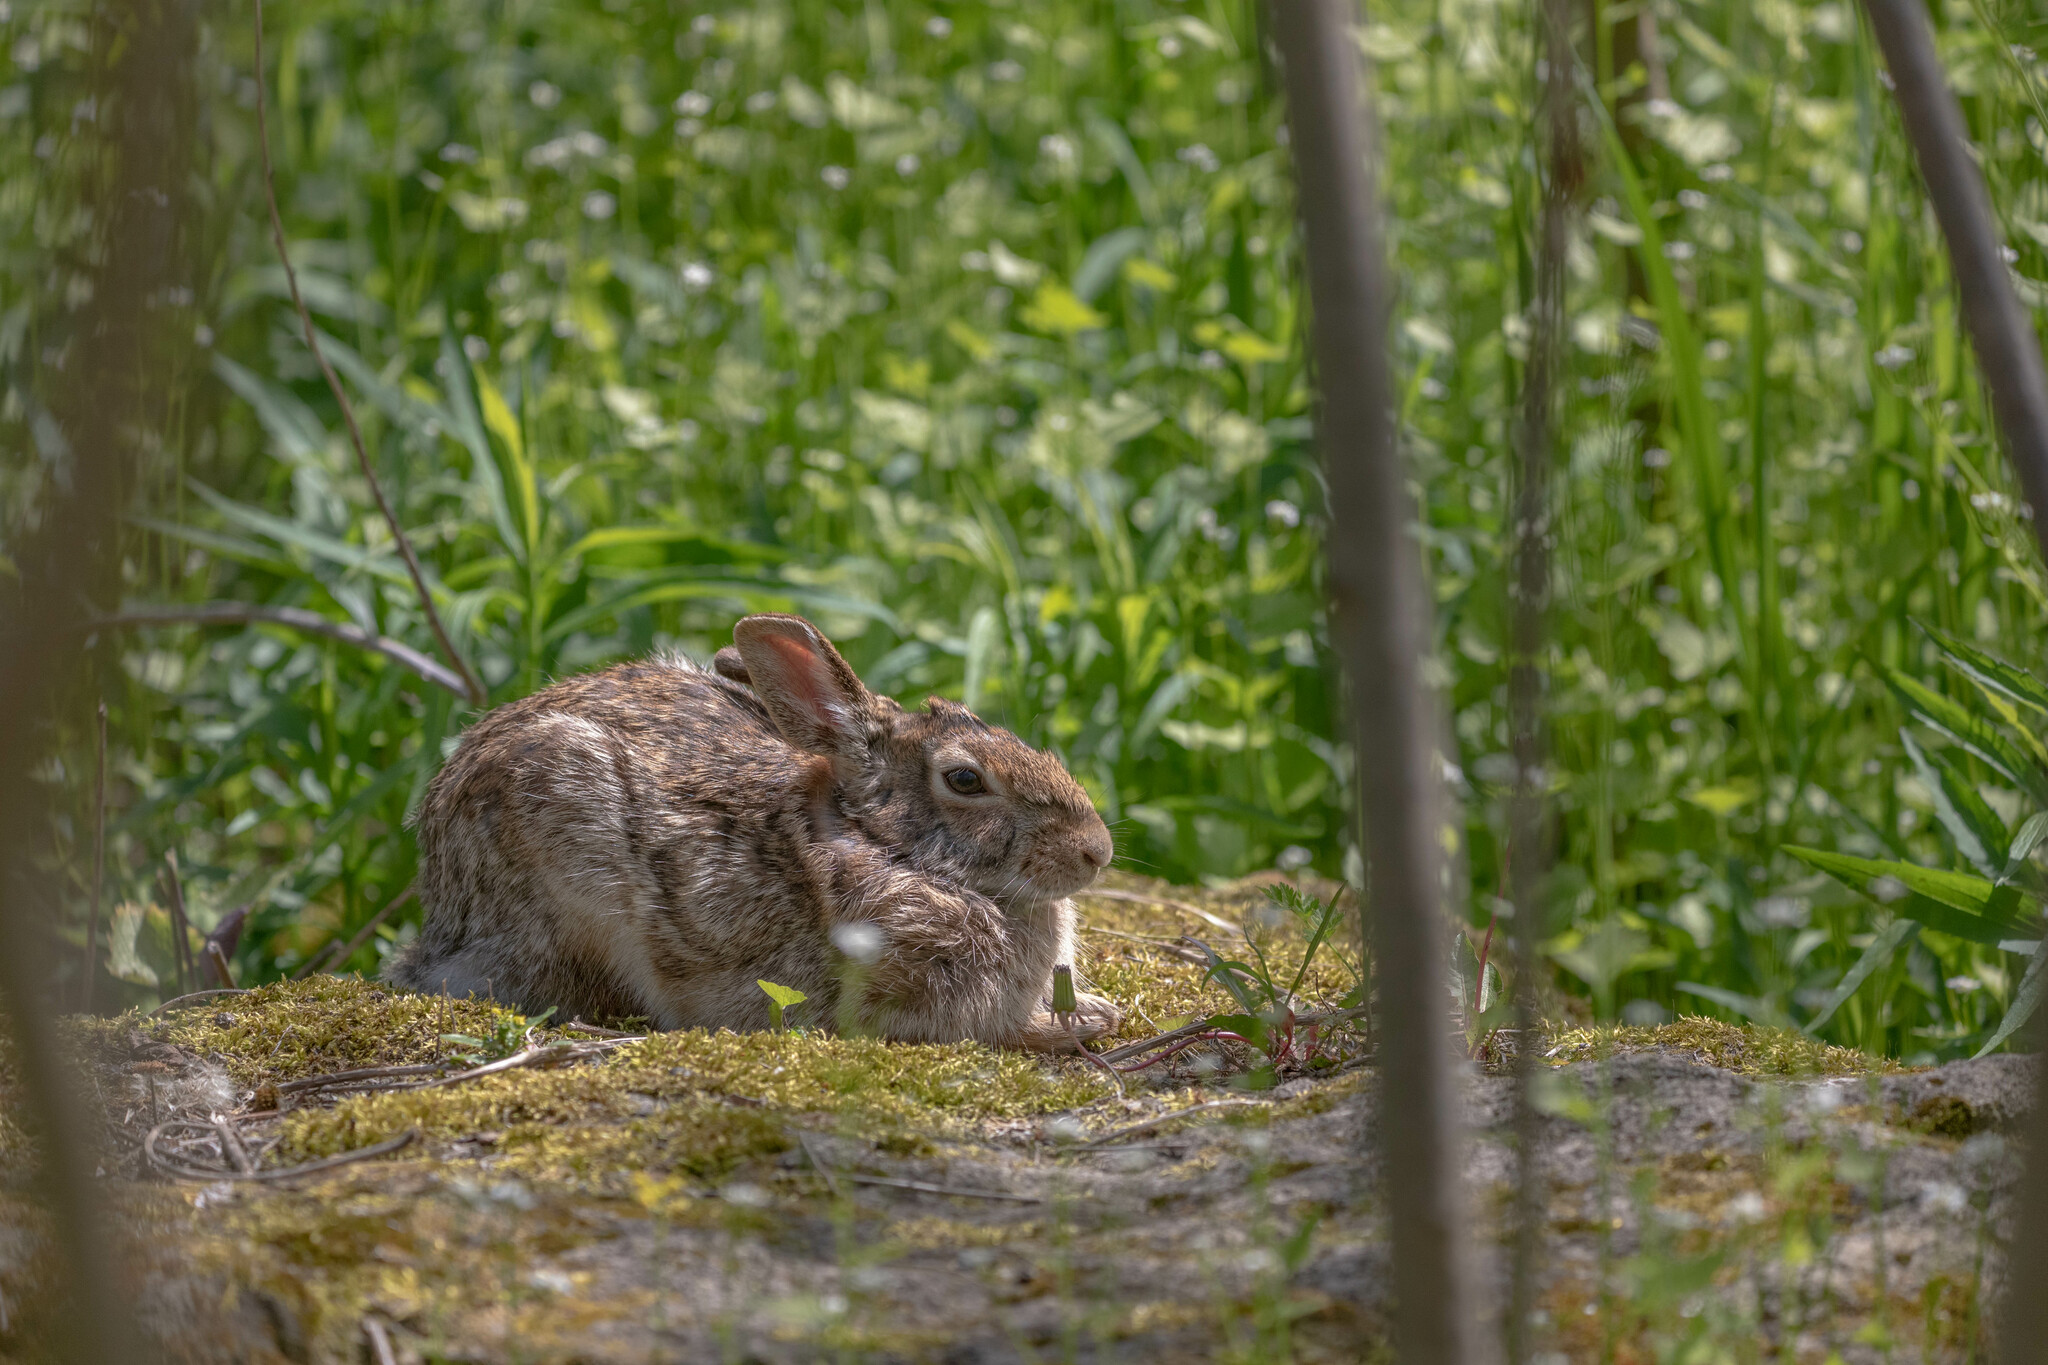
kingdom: Animalia
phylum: Chordata
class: Mammalia
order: Lagomorpha
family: Leporidae
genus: Sylvilagus
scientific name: Sylvilagus floridanus
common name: Eastern cottontail
